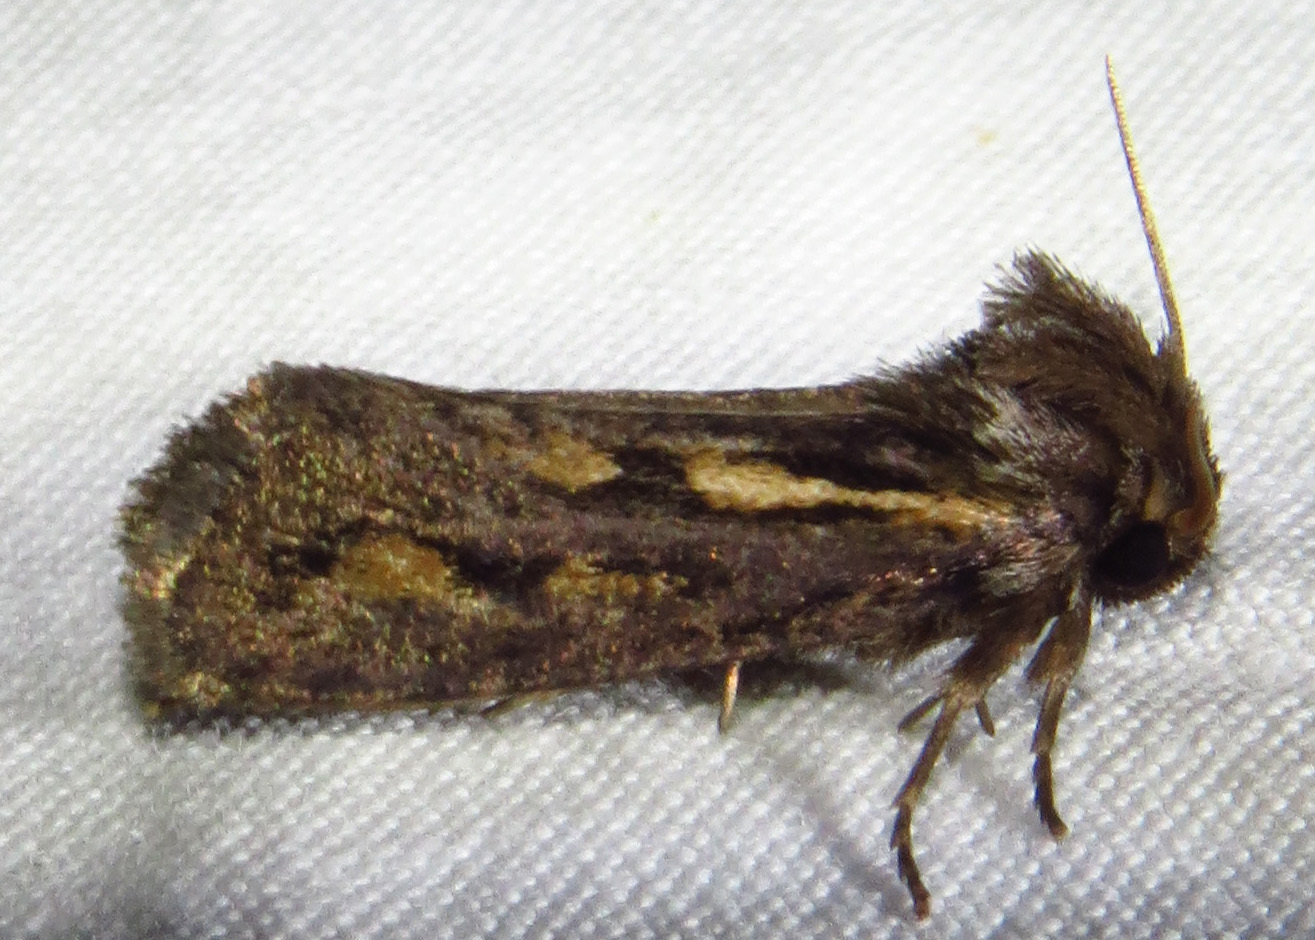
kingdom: Animalia
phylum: Arthropoda
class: Insecta
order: Lepidoptera
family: Tineidae
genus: Acrolophus
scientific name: Acrolophus popeanella
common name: Clemens' grass tubeworm moth
